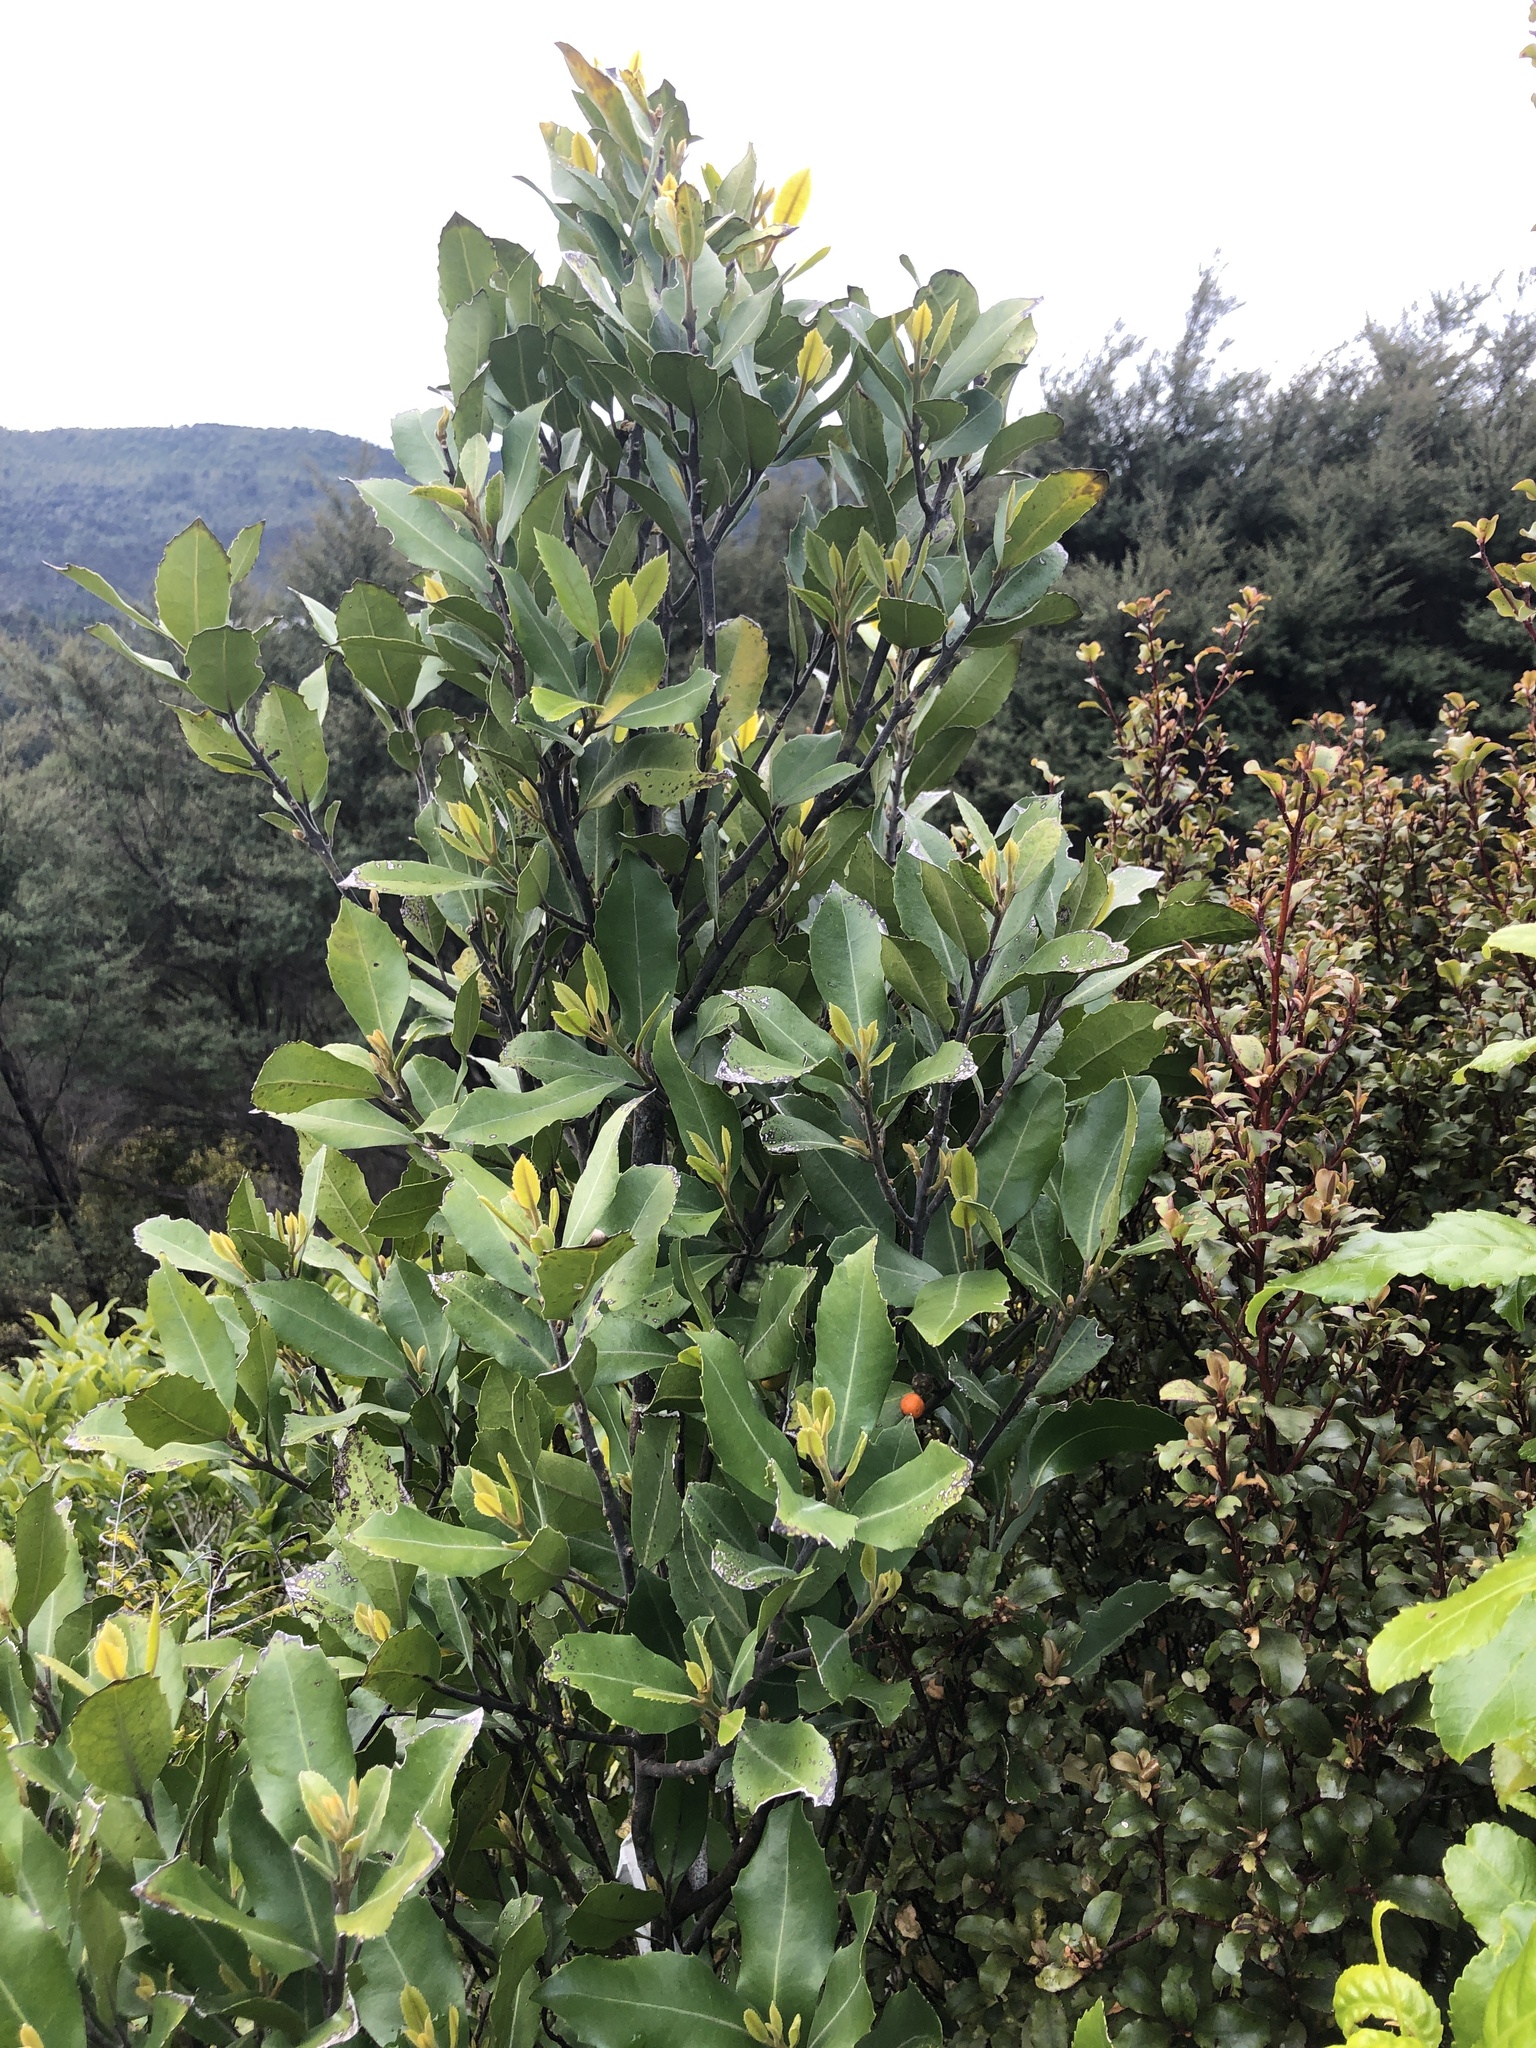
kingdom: Plantae
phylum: Tracheophyta
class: Magnoliopsida
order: Laurales
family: Monimiaceae
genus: Hedycarya
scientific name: Hedycarya arborea
